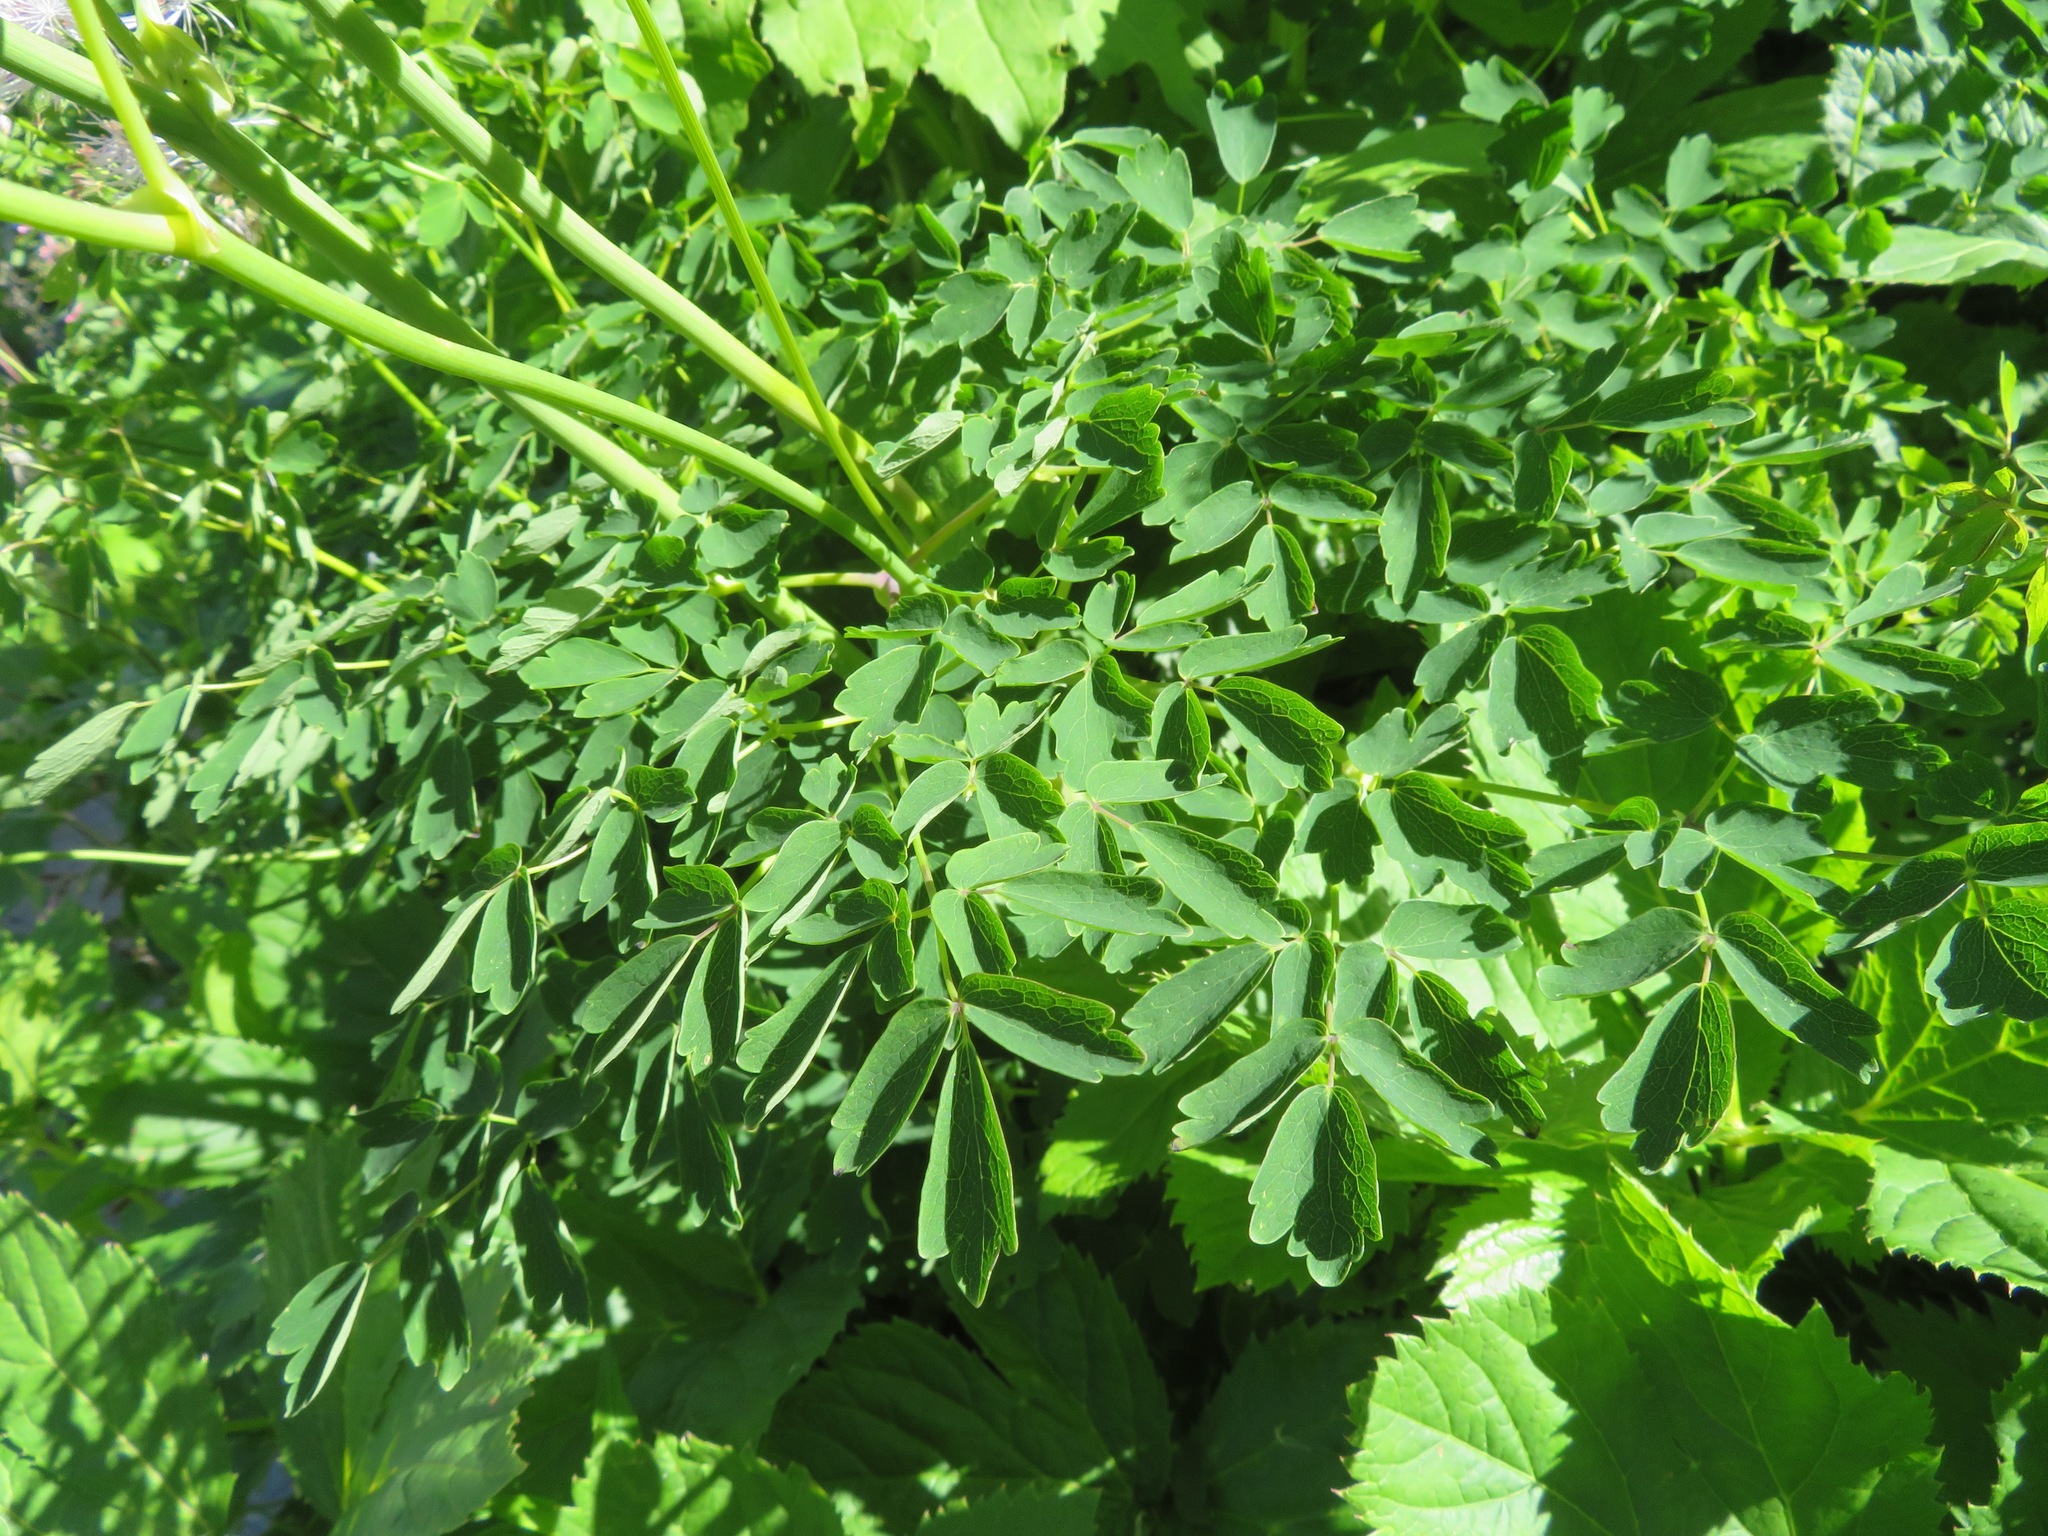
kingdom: Plantae
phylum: Tracheophyta
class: Magnoliopsida
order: Ranunculales
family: Ranunculaceae
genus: Thalictrum
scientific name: Thalictrum aquilegiifolium
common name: French meadow-rue
